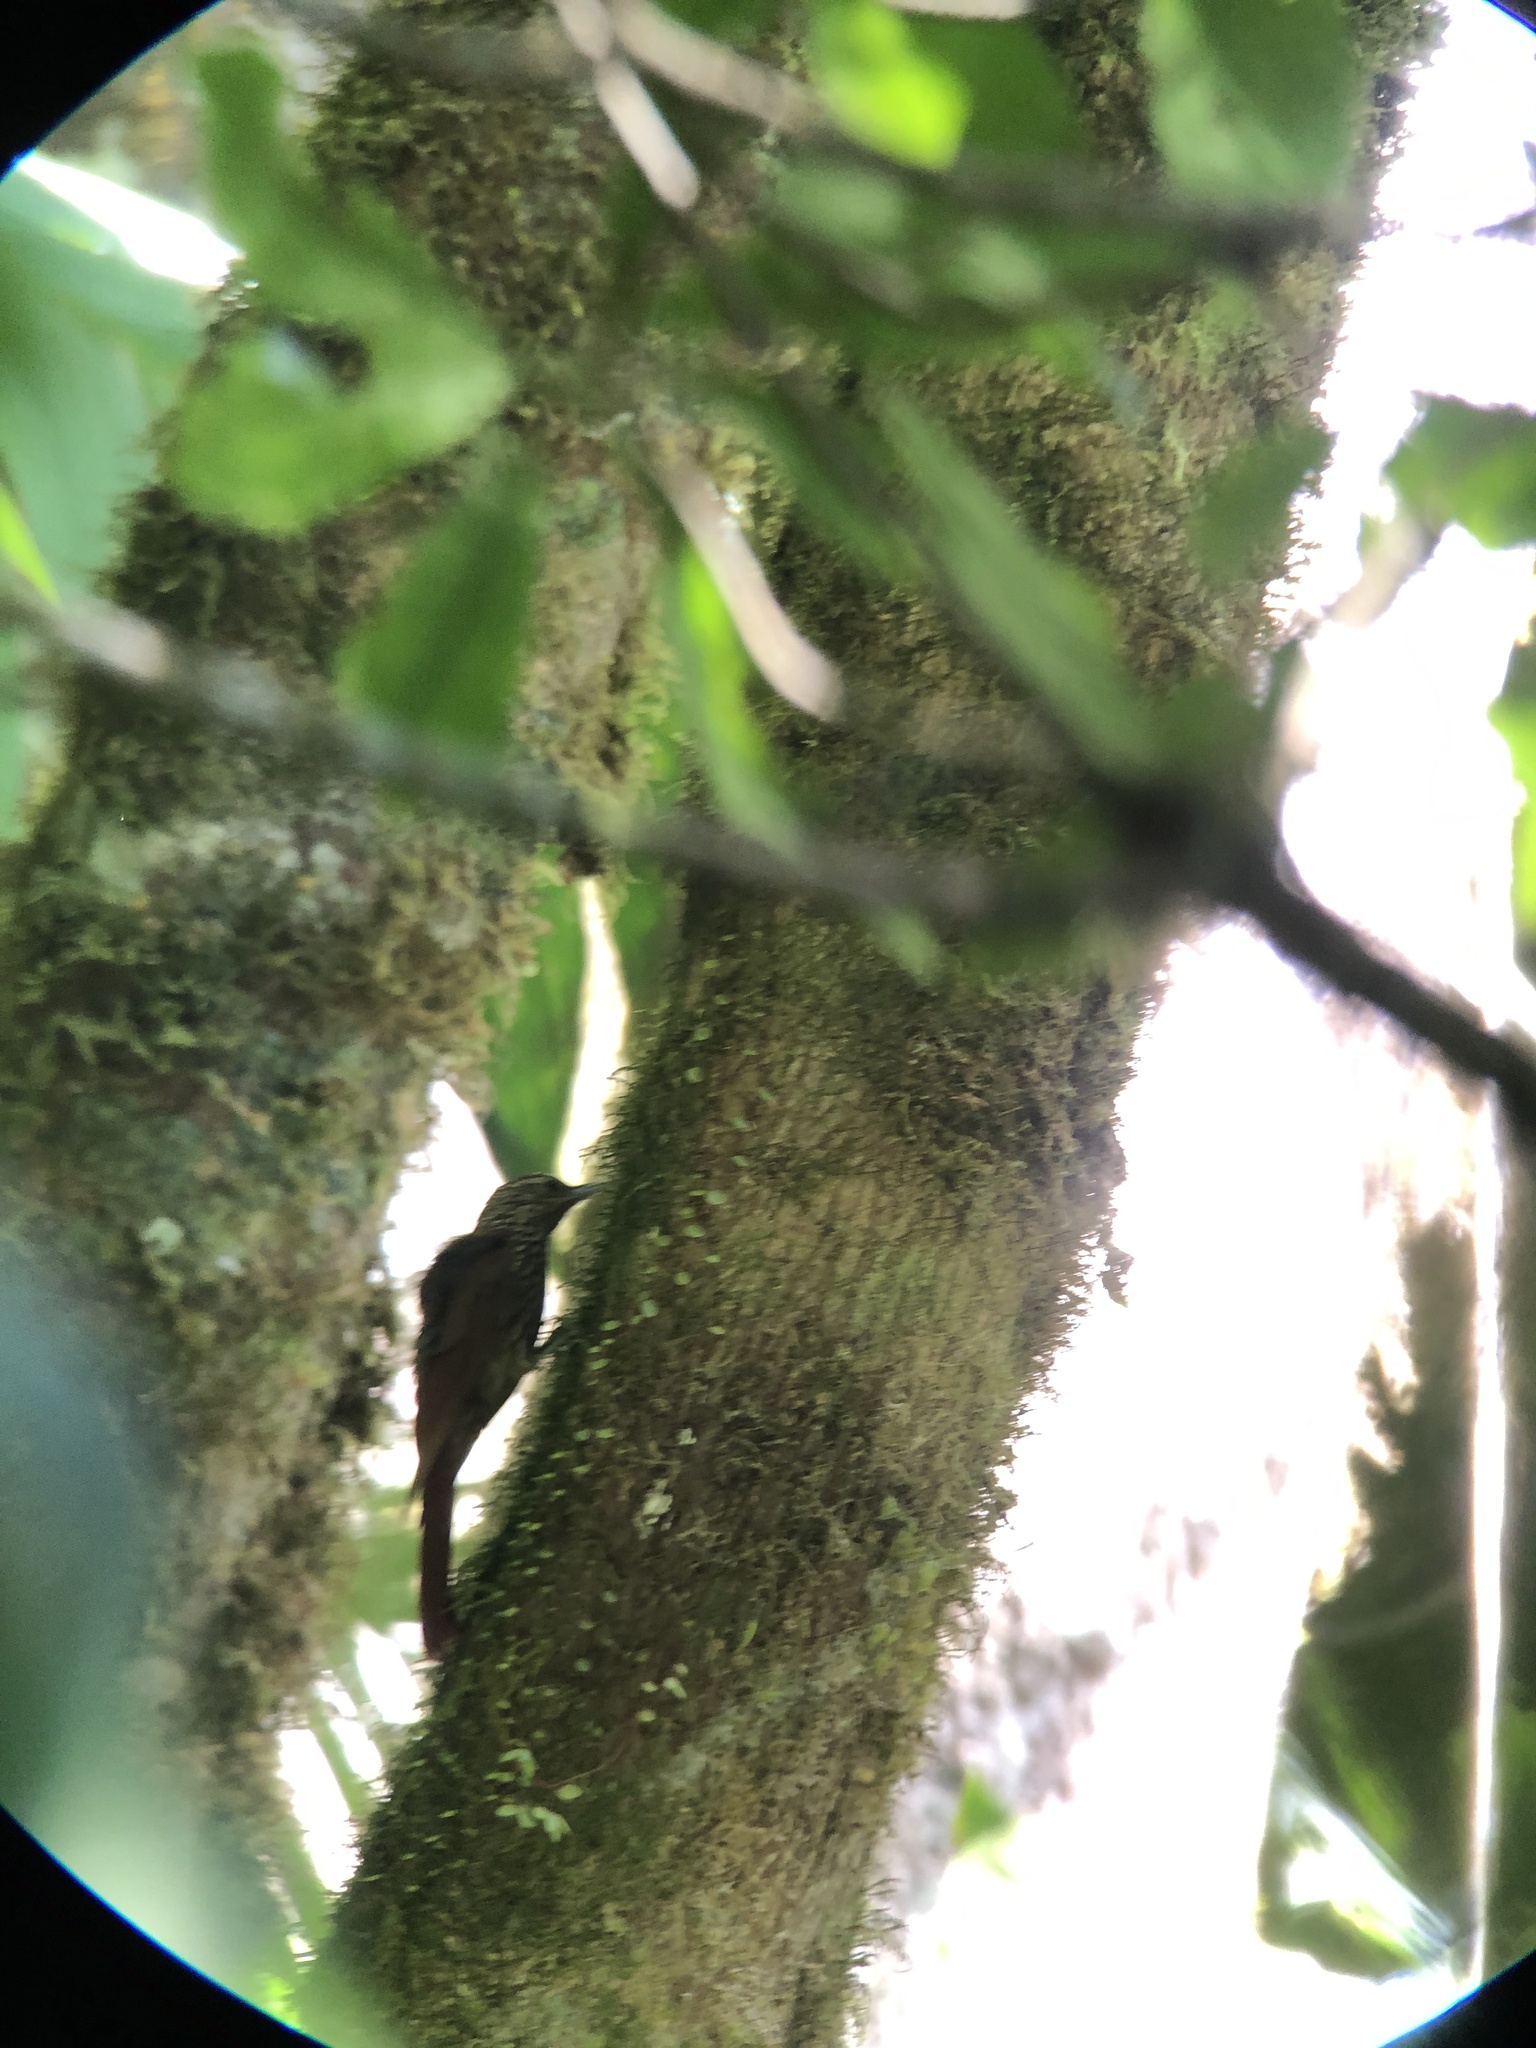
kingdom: Animalia
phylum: Chordata
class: Aves
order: Passeriformes
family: Furnariidae
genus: Lepidocolaptes
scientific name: Lepidocolaptes affinis
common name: Spot-crowned woodcreeper
